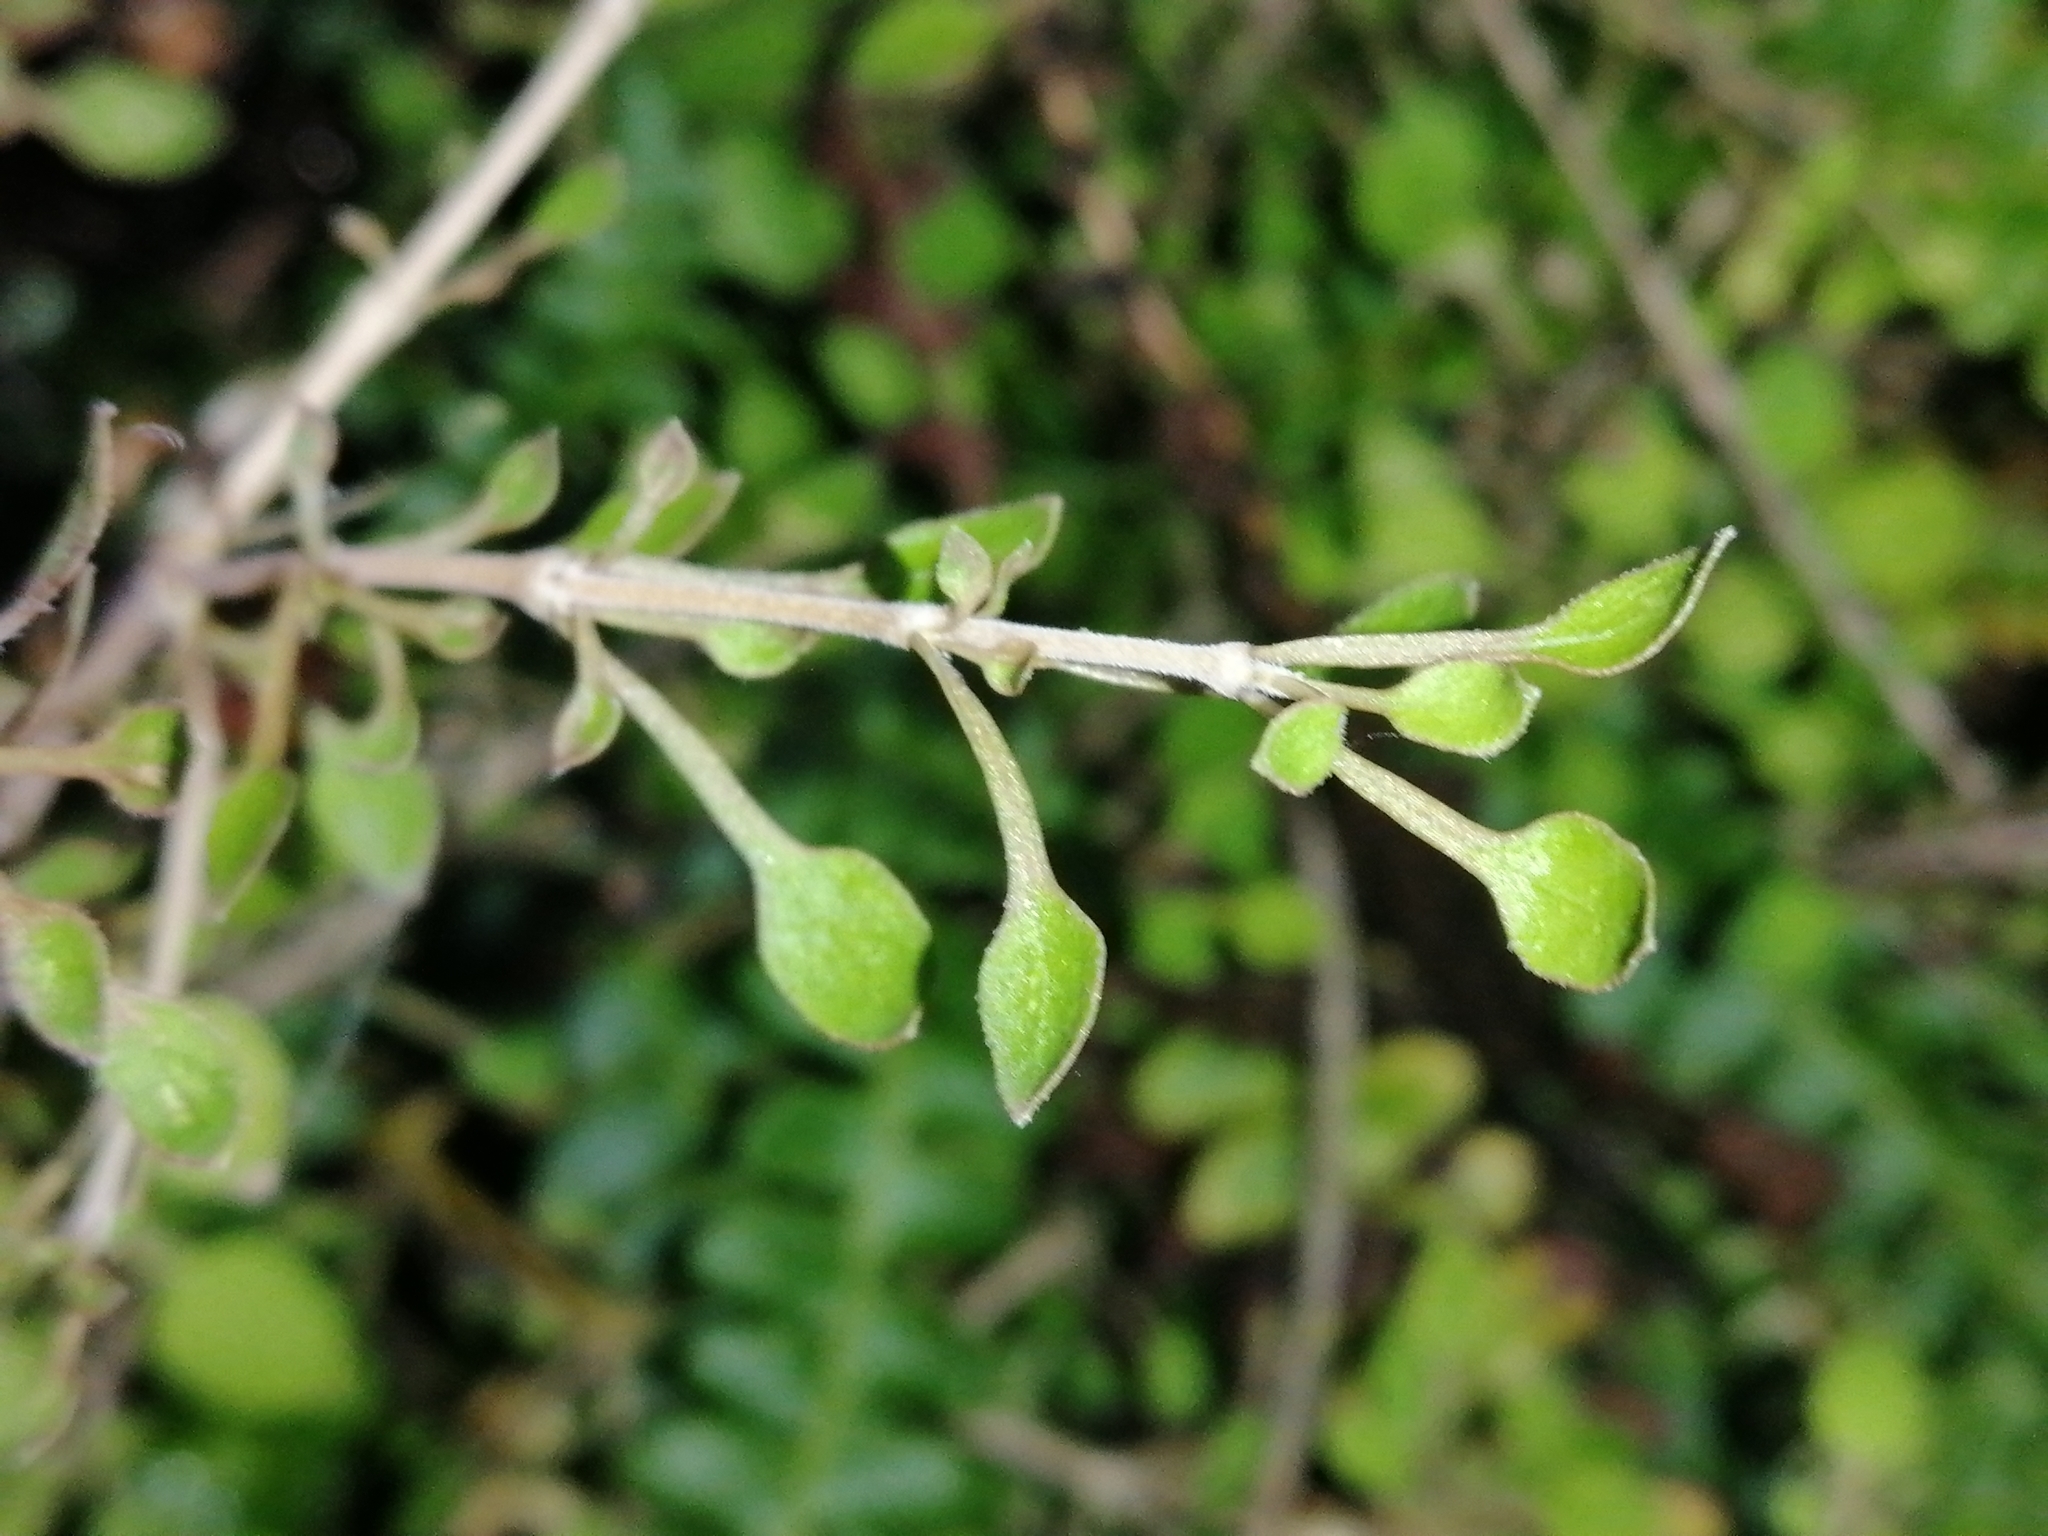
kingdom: Plantae
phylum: Tracheophyta
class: Magnoliopsida
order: Gentianales
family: Rubiaceae
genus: Coprosma
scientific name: Coprosma virescens
